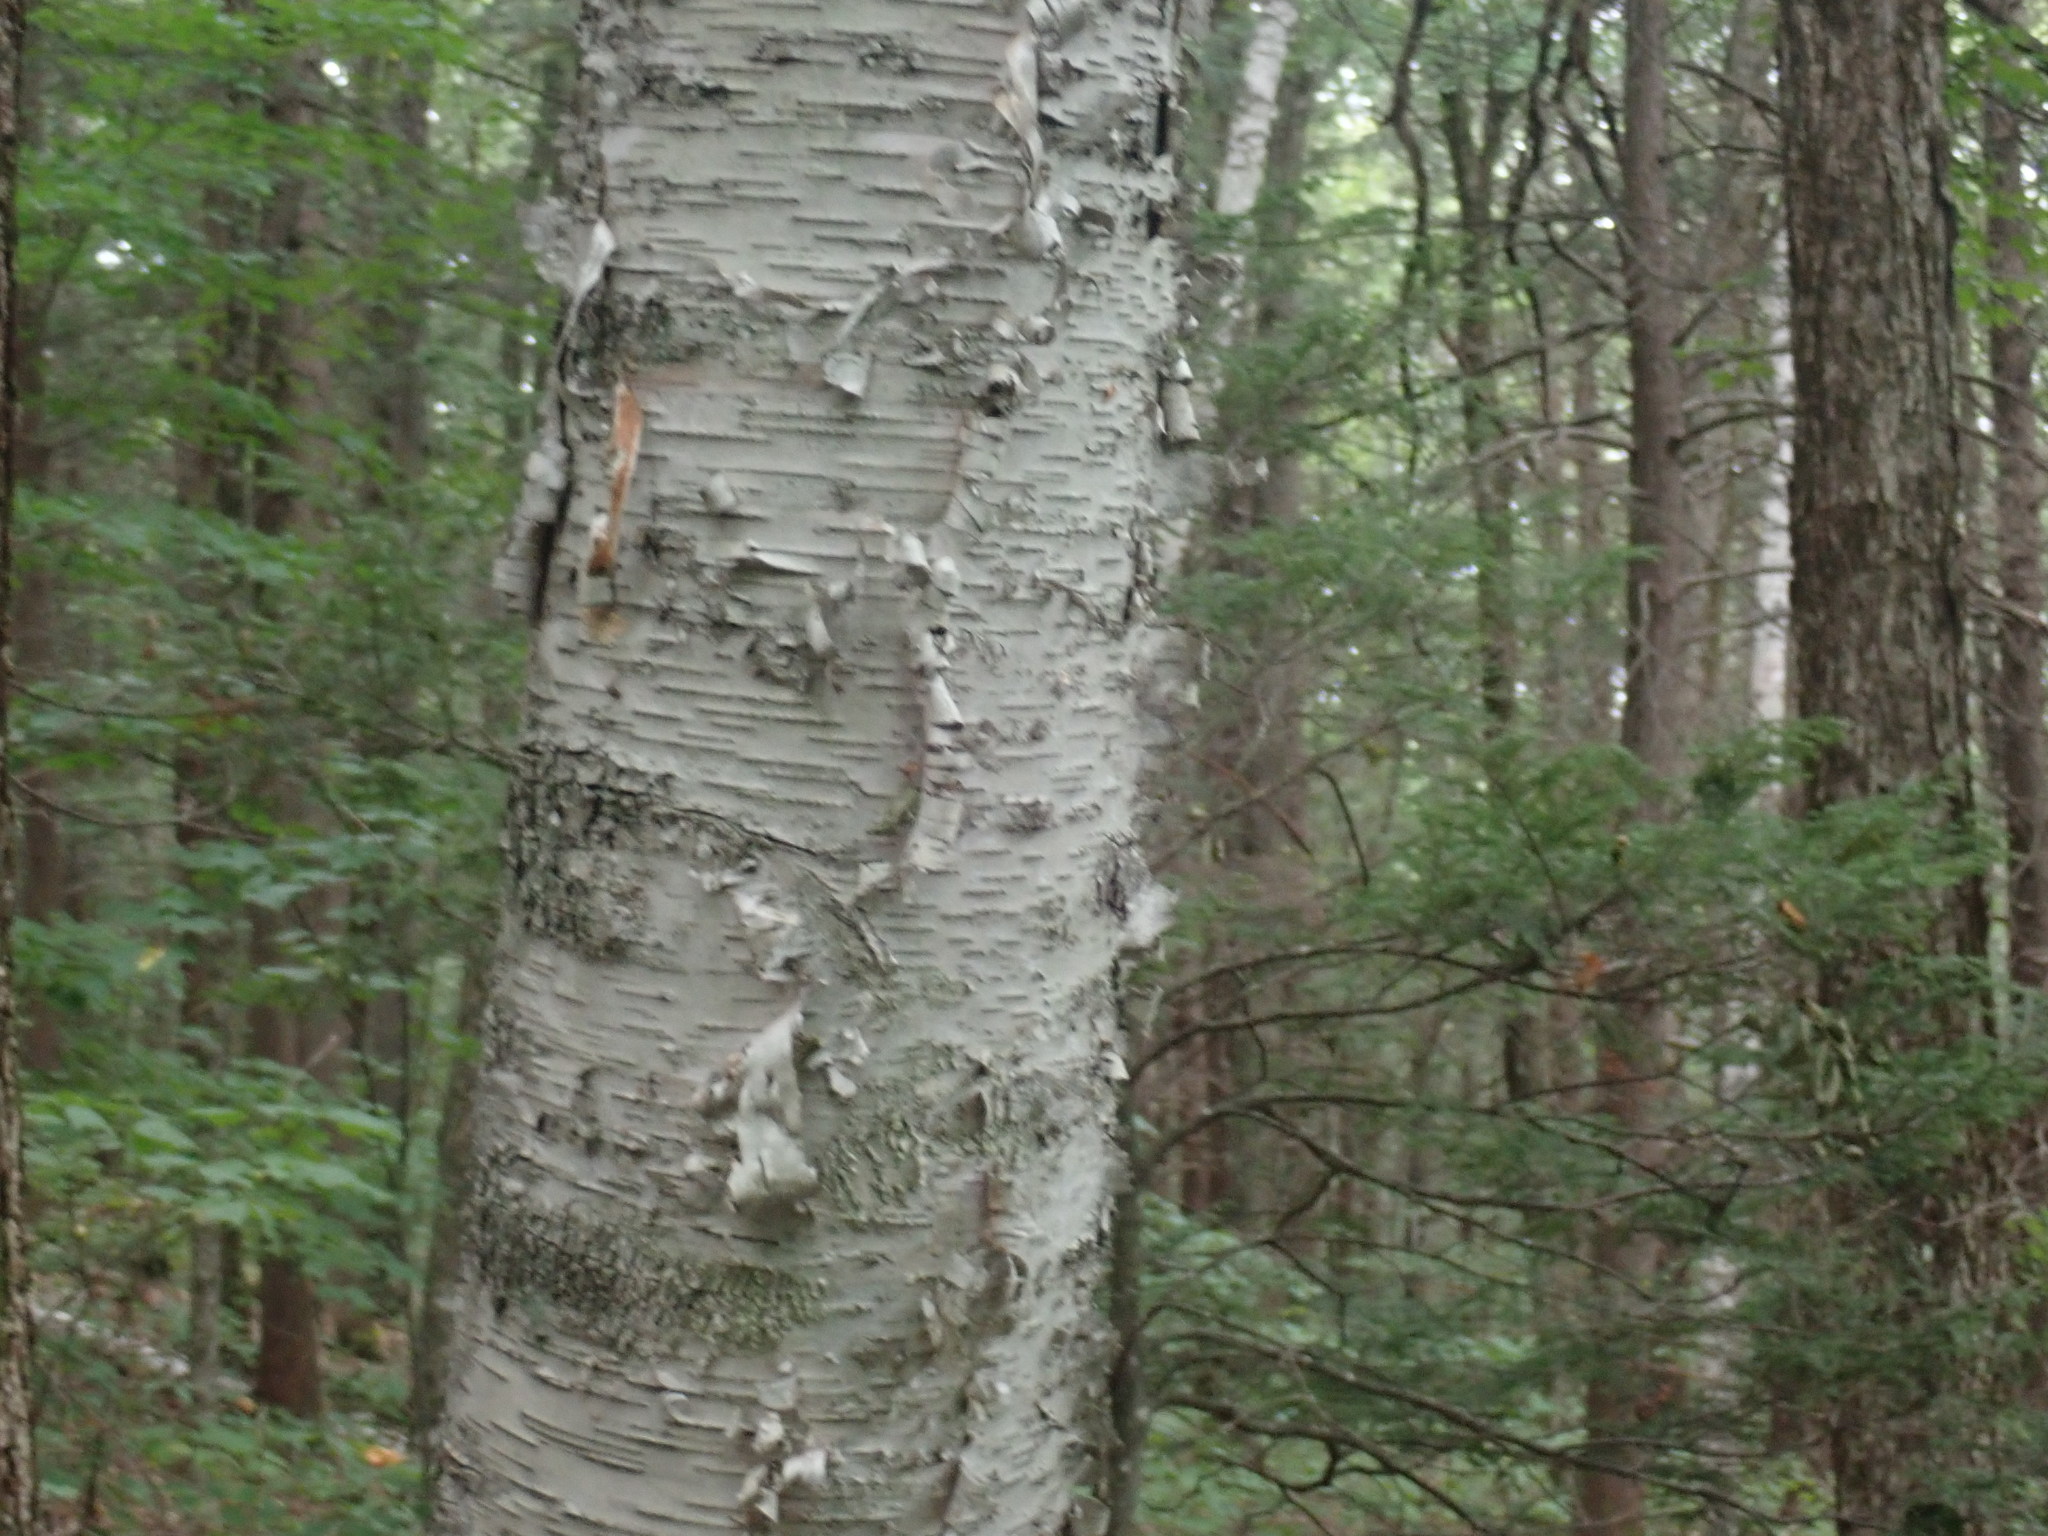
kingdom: Plantae
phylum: Tracheophyta
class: Magnoliopsida
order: Fagales
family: Betulaceae
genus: Betula
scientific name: Betula papyrifera
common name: Paper birch
